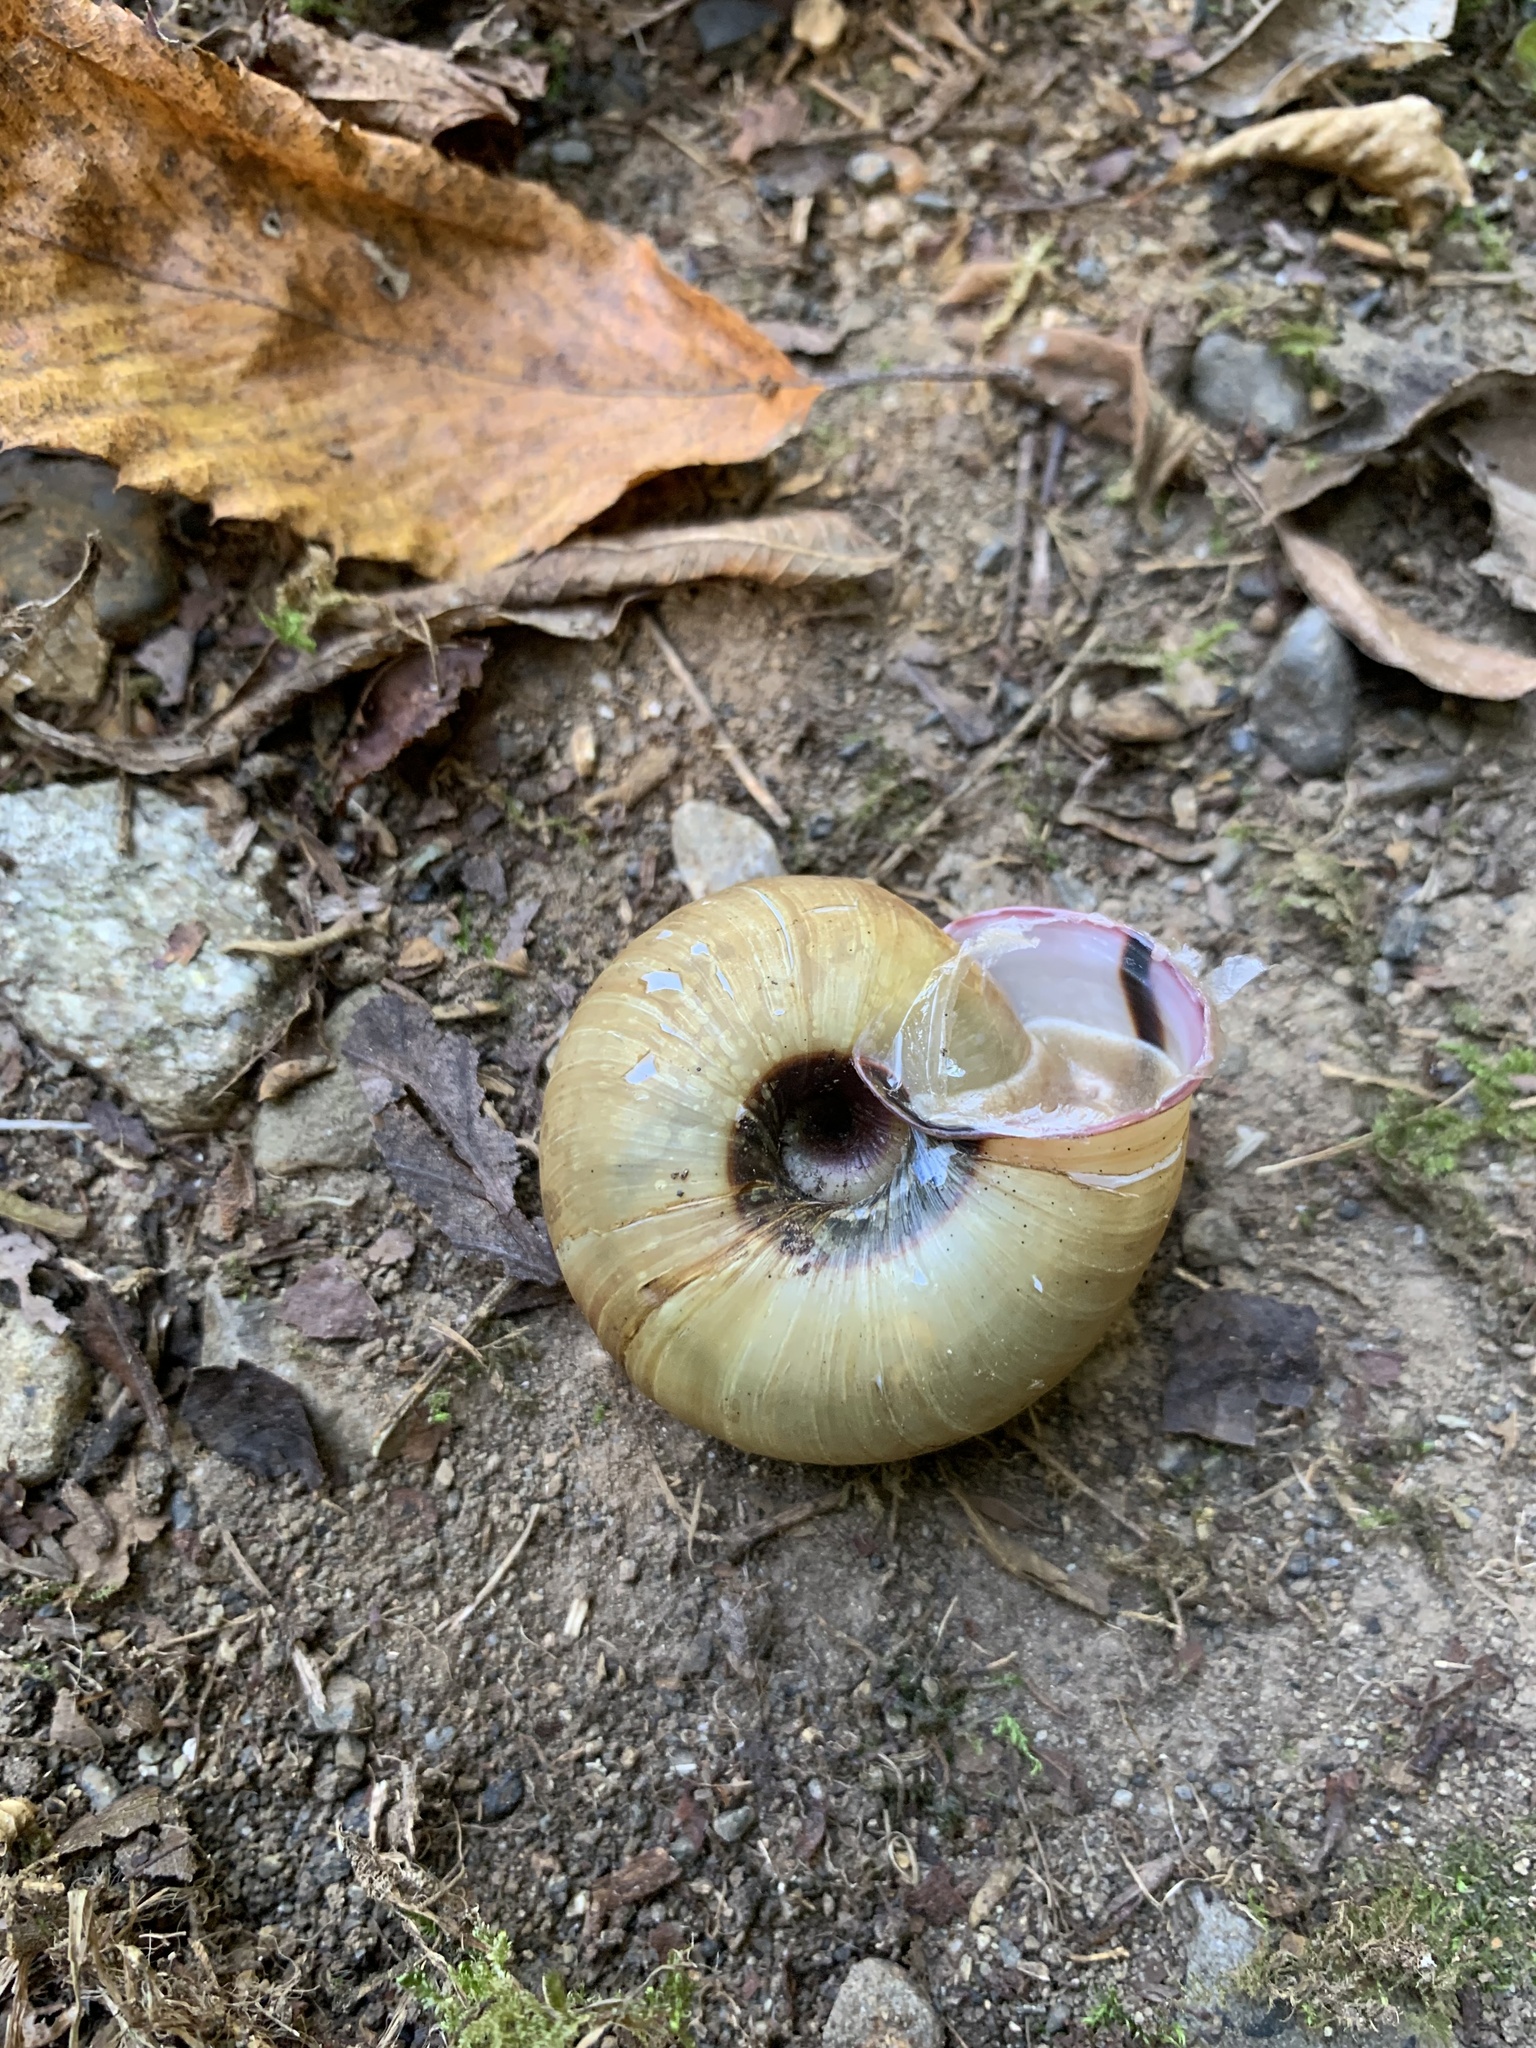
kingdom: Animalia
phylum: Mollusca
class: Gastropoda
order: Stylommatophora
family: Camaenidae
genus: Euhadra
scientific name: Euhadra peliomphala
